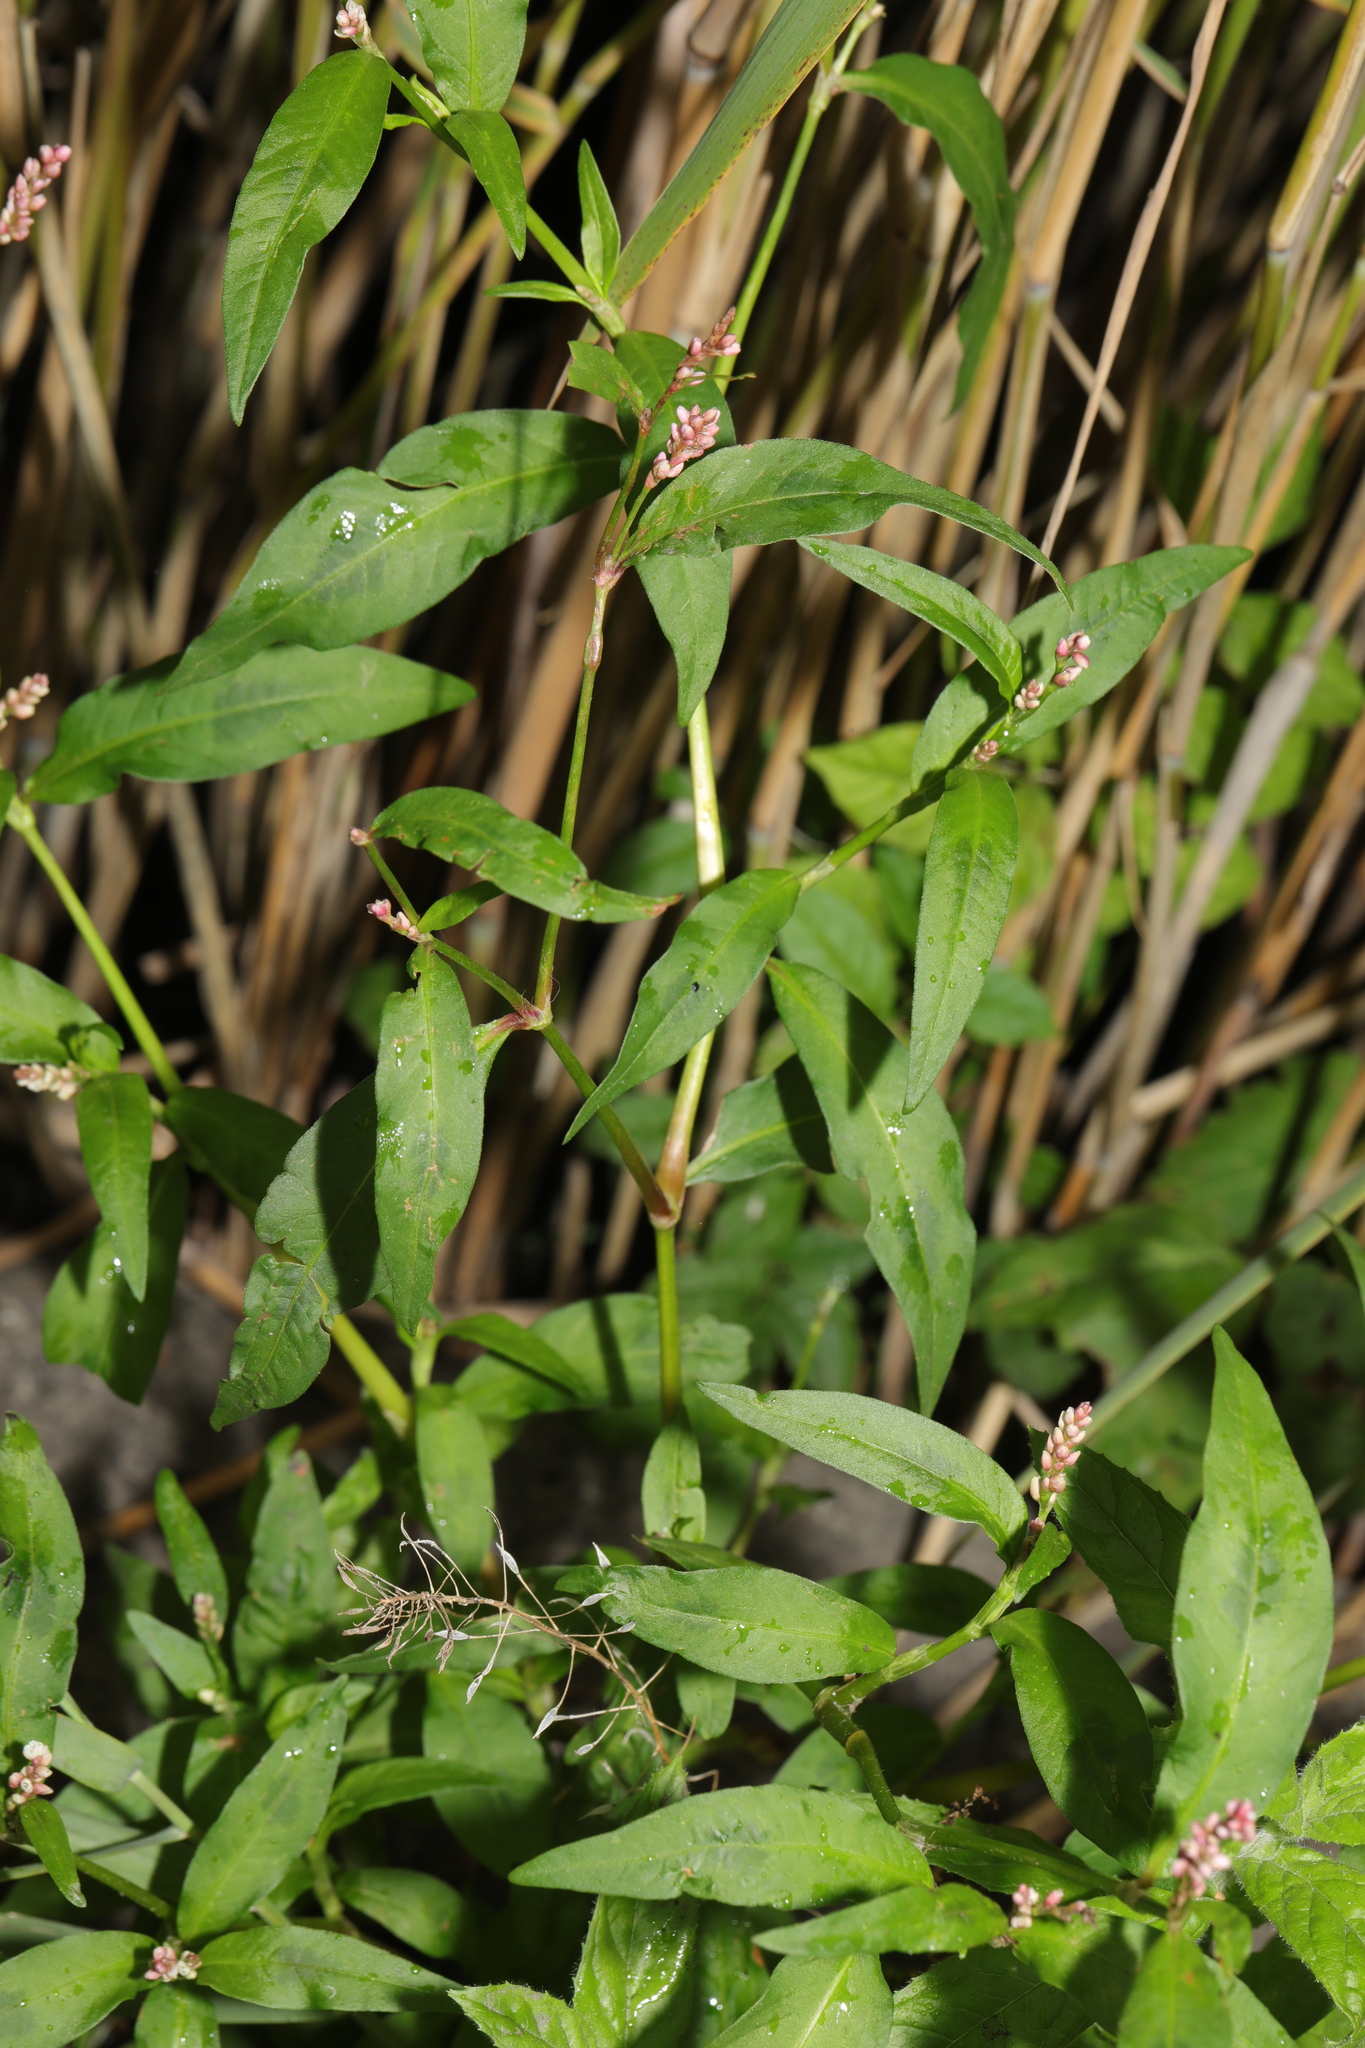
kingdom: Plantae
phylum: Tracheophyta
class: Magnoliopsida
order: Caryophyllales
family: Polygonaceae
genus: Persicaria
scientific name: Persicaria maculosa
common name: Redshank
